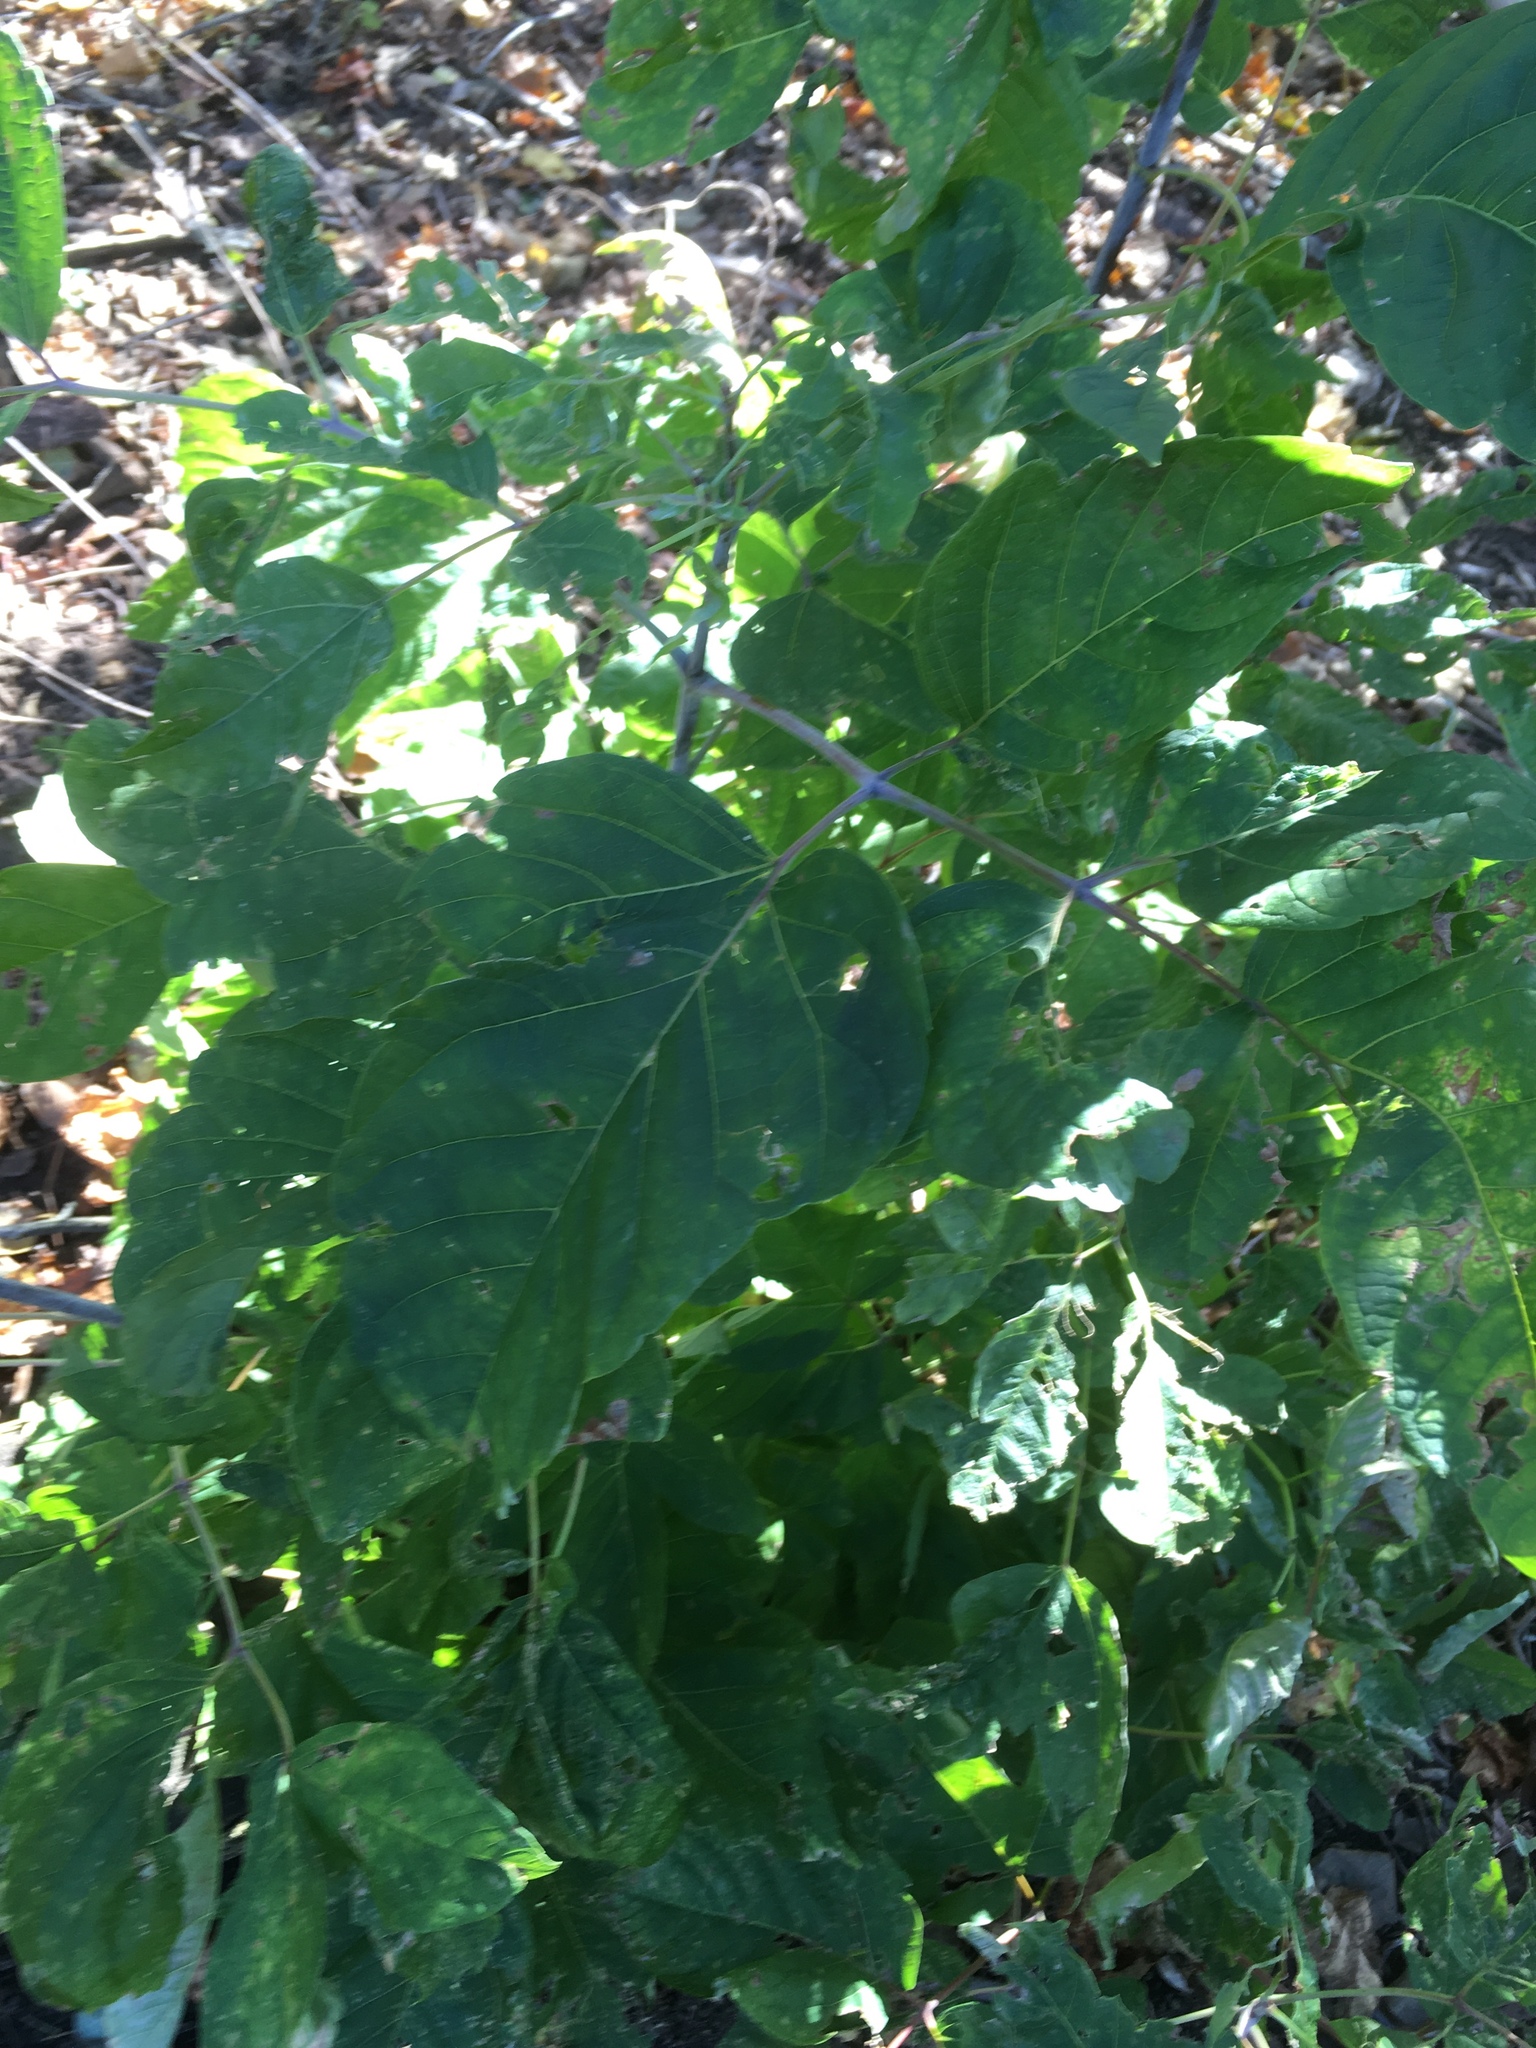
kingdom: Plantae
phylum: Tracheophyta
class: Magnoliopsida
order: Sapindales
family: Sapindaceae
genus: Acer
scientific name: Acer negundo
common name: Ashleaf maple
